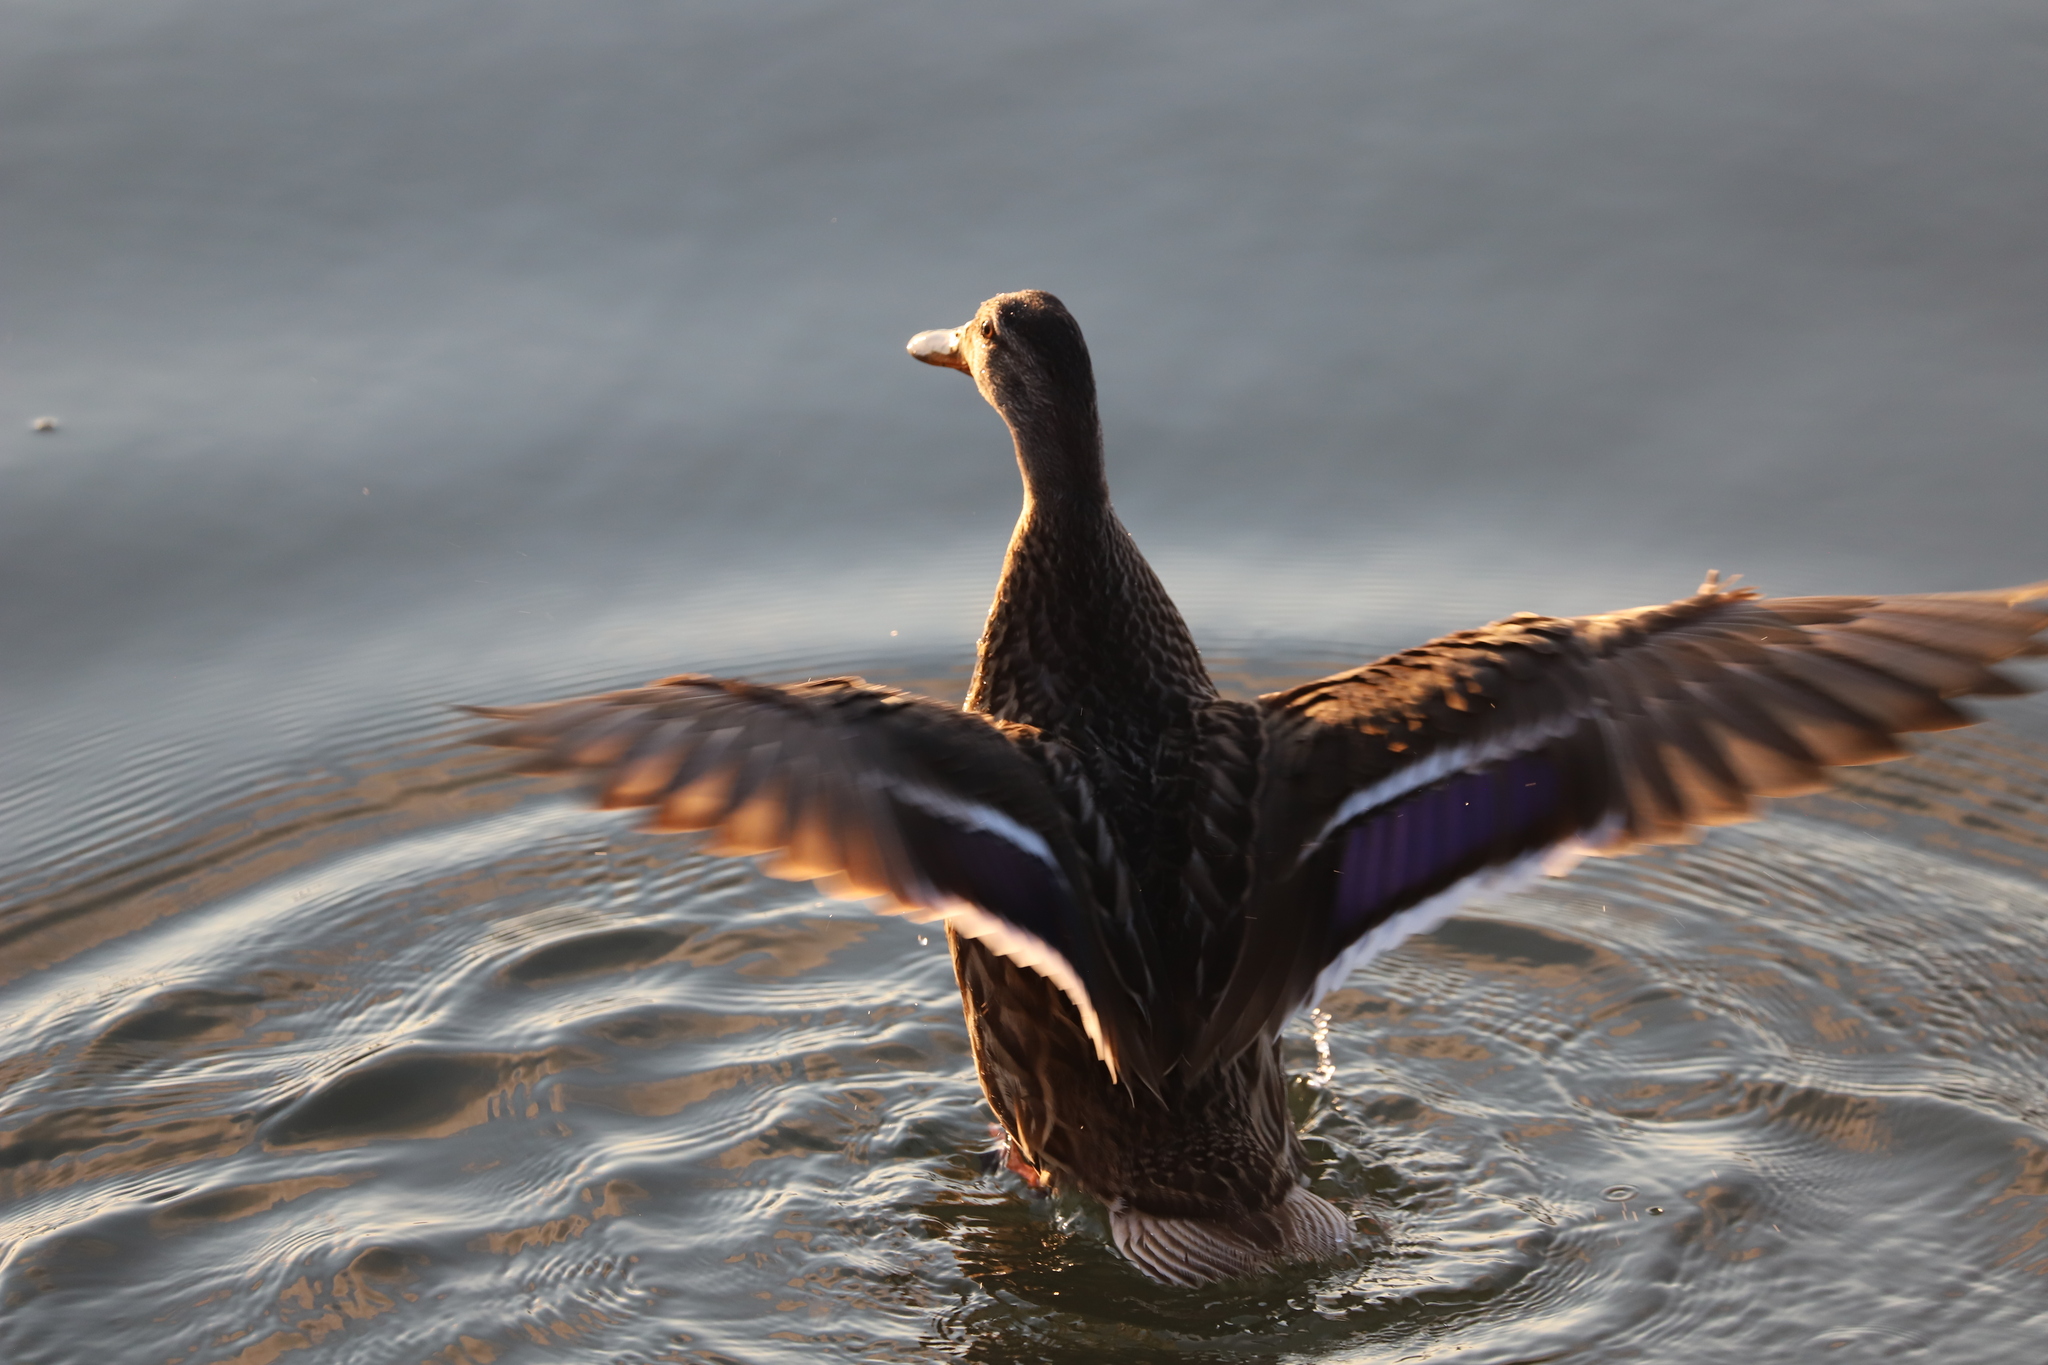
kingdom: Animalia
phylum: Chordata
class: Aves
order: Anseriformes
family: Anatidae
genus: Anas
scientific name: Anas platyrhynchos
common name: Mallard
